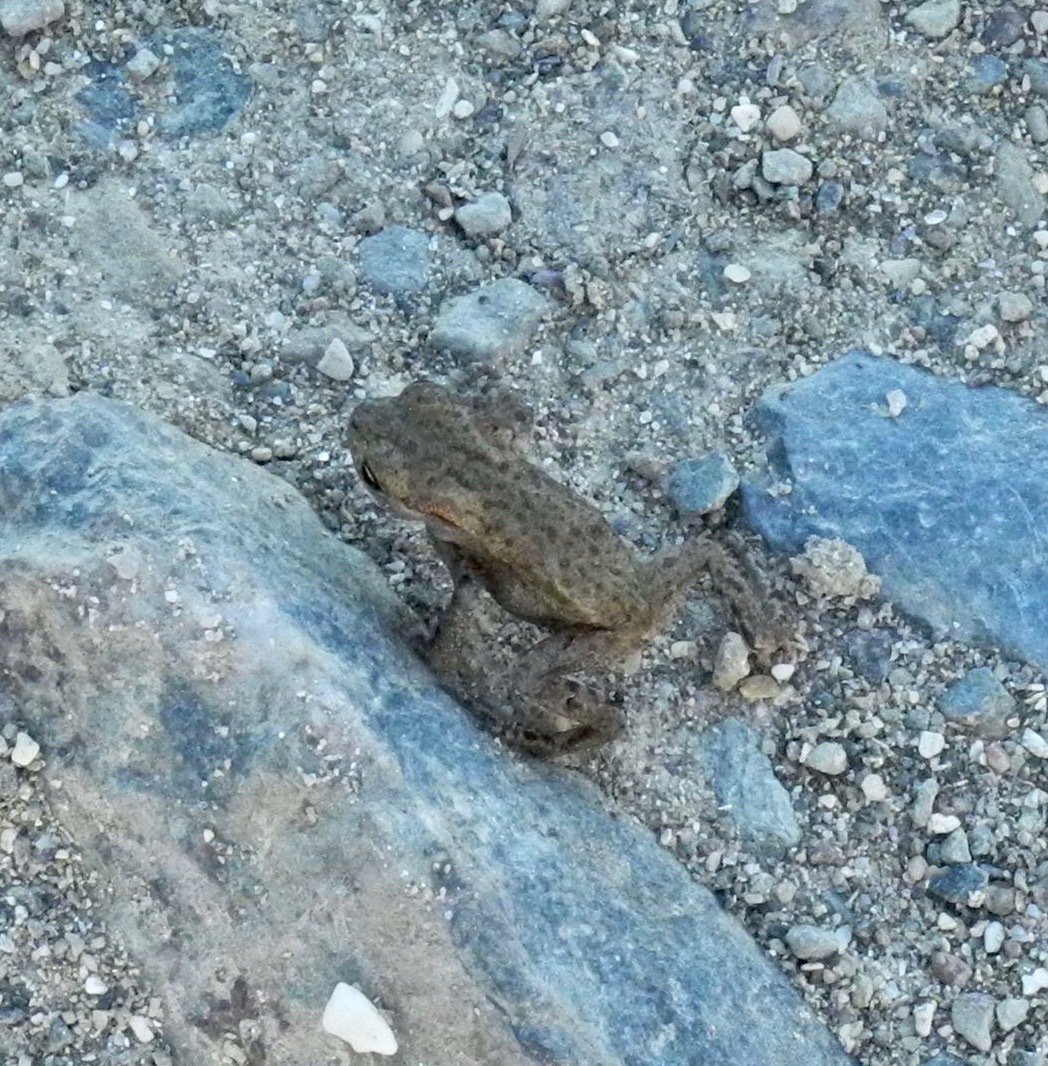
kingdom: Animalia
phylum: Chordata
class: Amphibia
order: Anura
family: Bufonidae
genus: Bufo
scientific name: Bufo bufo
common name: Common toad
